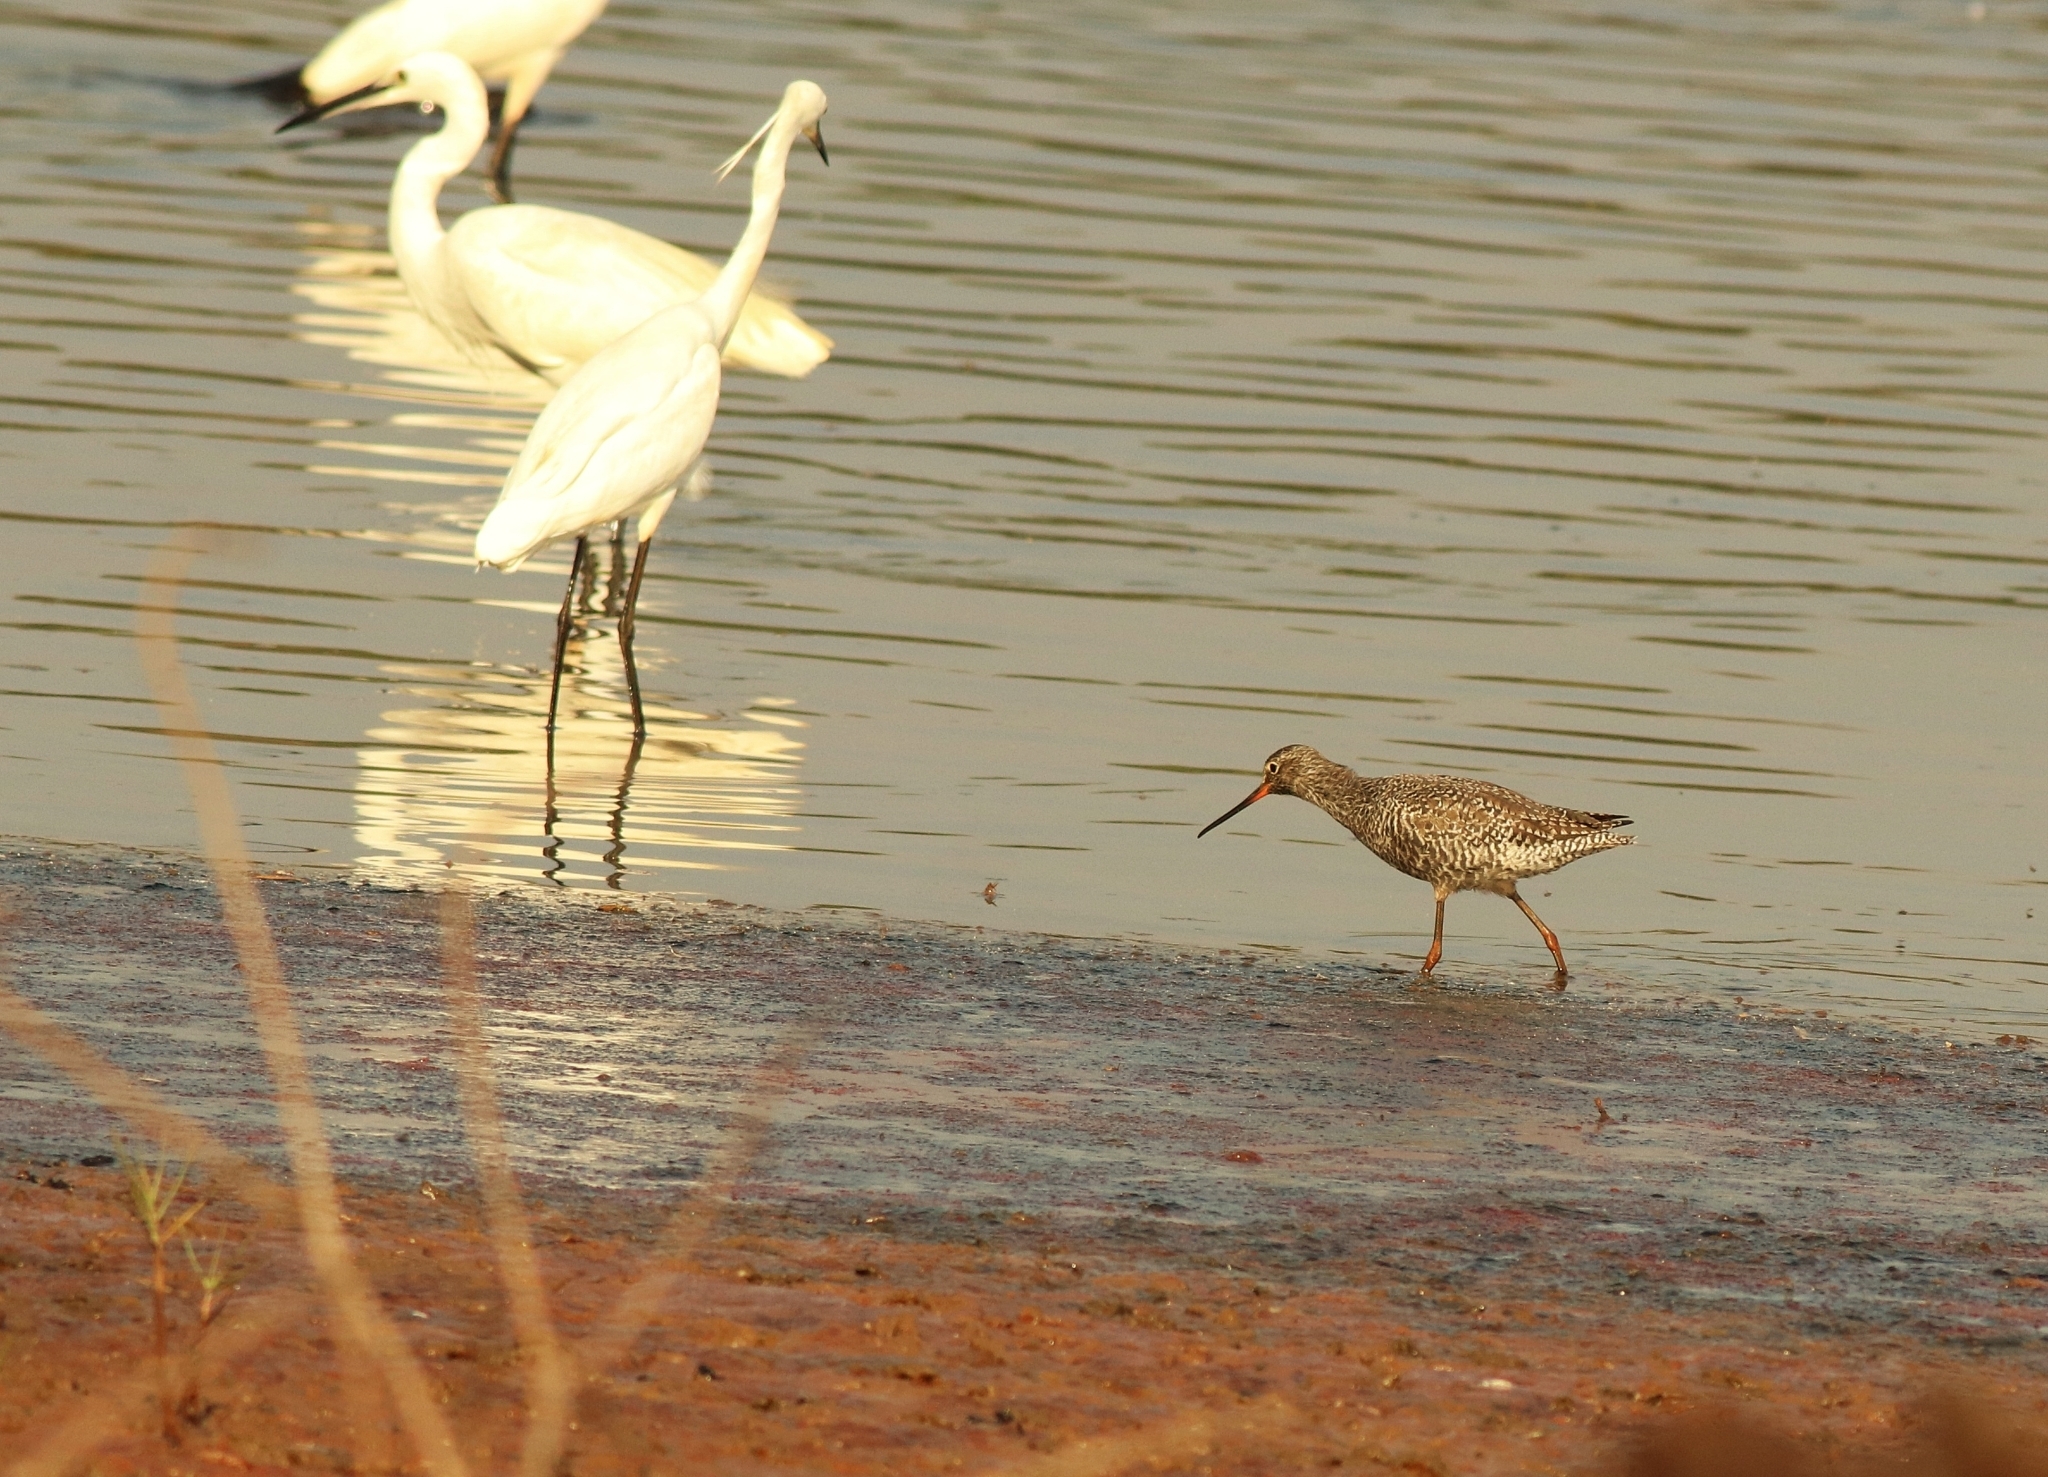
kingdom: Animalia
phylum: Chordata
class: Aves
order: Pelecaniformes
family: Ardeidae
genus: Egretta
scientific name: Egretta garzetta
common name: Little egret
